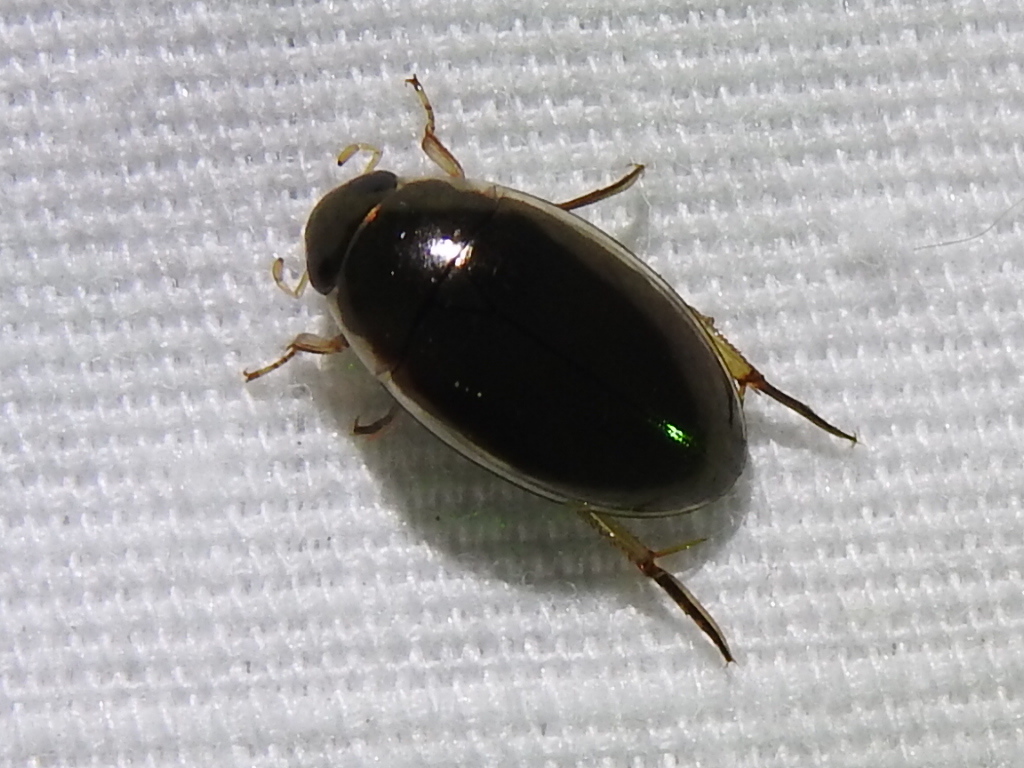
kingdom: Animalia
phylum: Arthropoda
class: Insecta
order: Coleoptera
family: Hydrophilidae
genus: Tropisternus
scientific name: Tropisternus lateralis
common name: Lateral-banded water scavenger beetle
